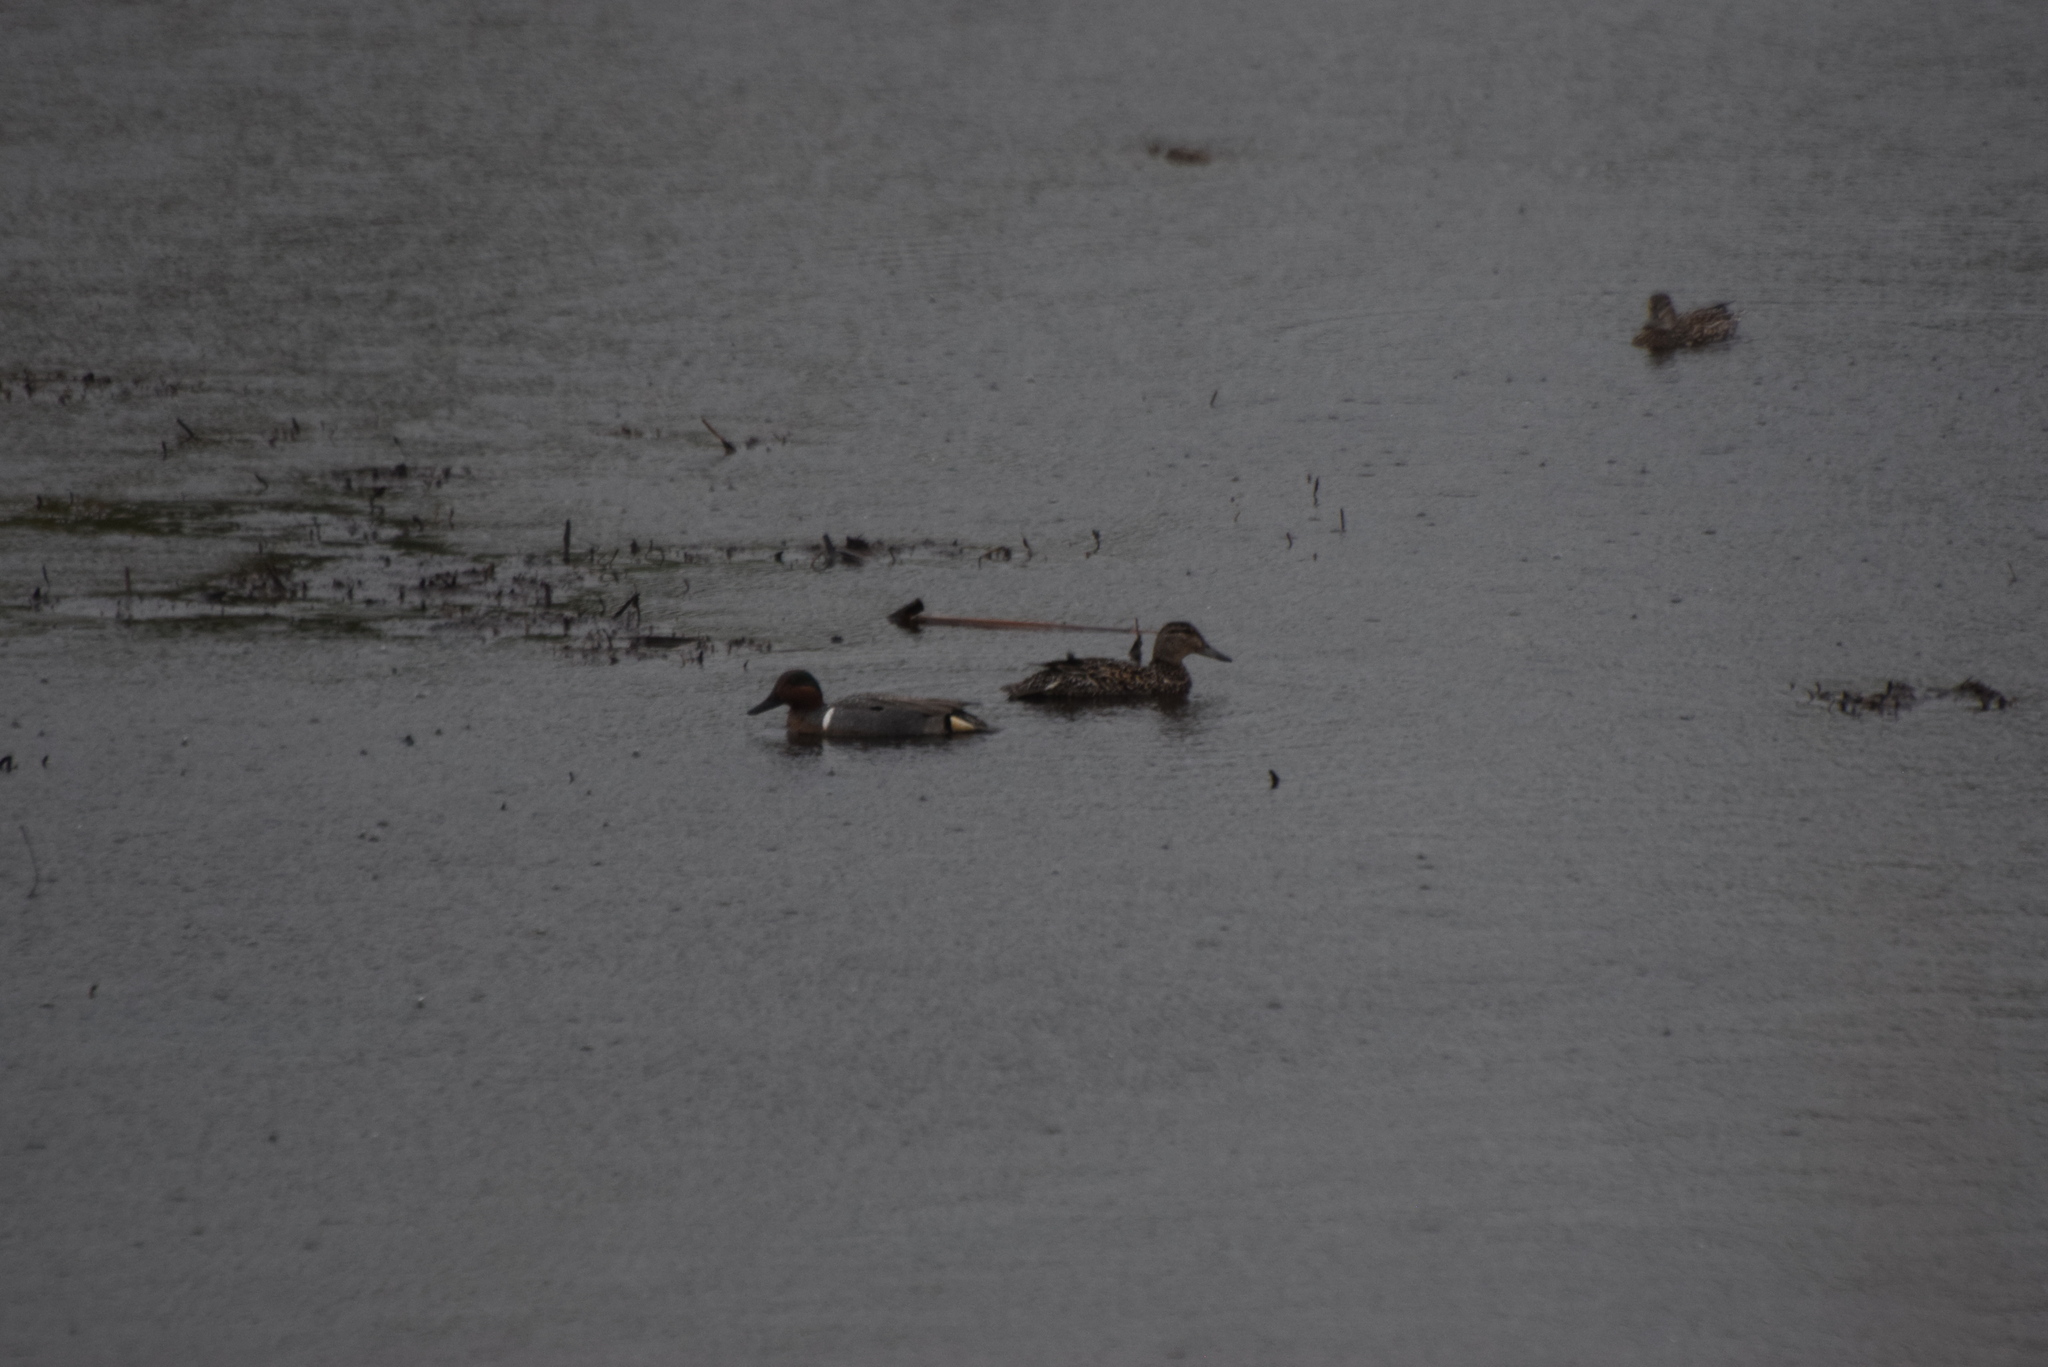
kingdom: Animalia
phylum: Chordata
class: Aves
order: Anseriformes
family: Anatidae
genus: Anas
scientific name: Anas crecca
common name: Eurasian teal
